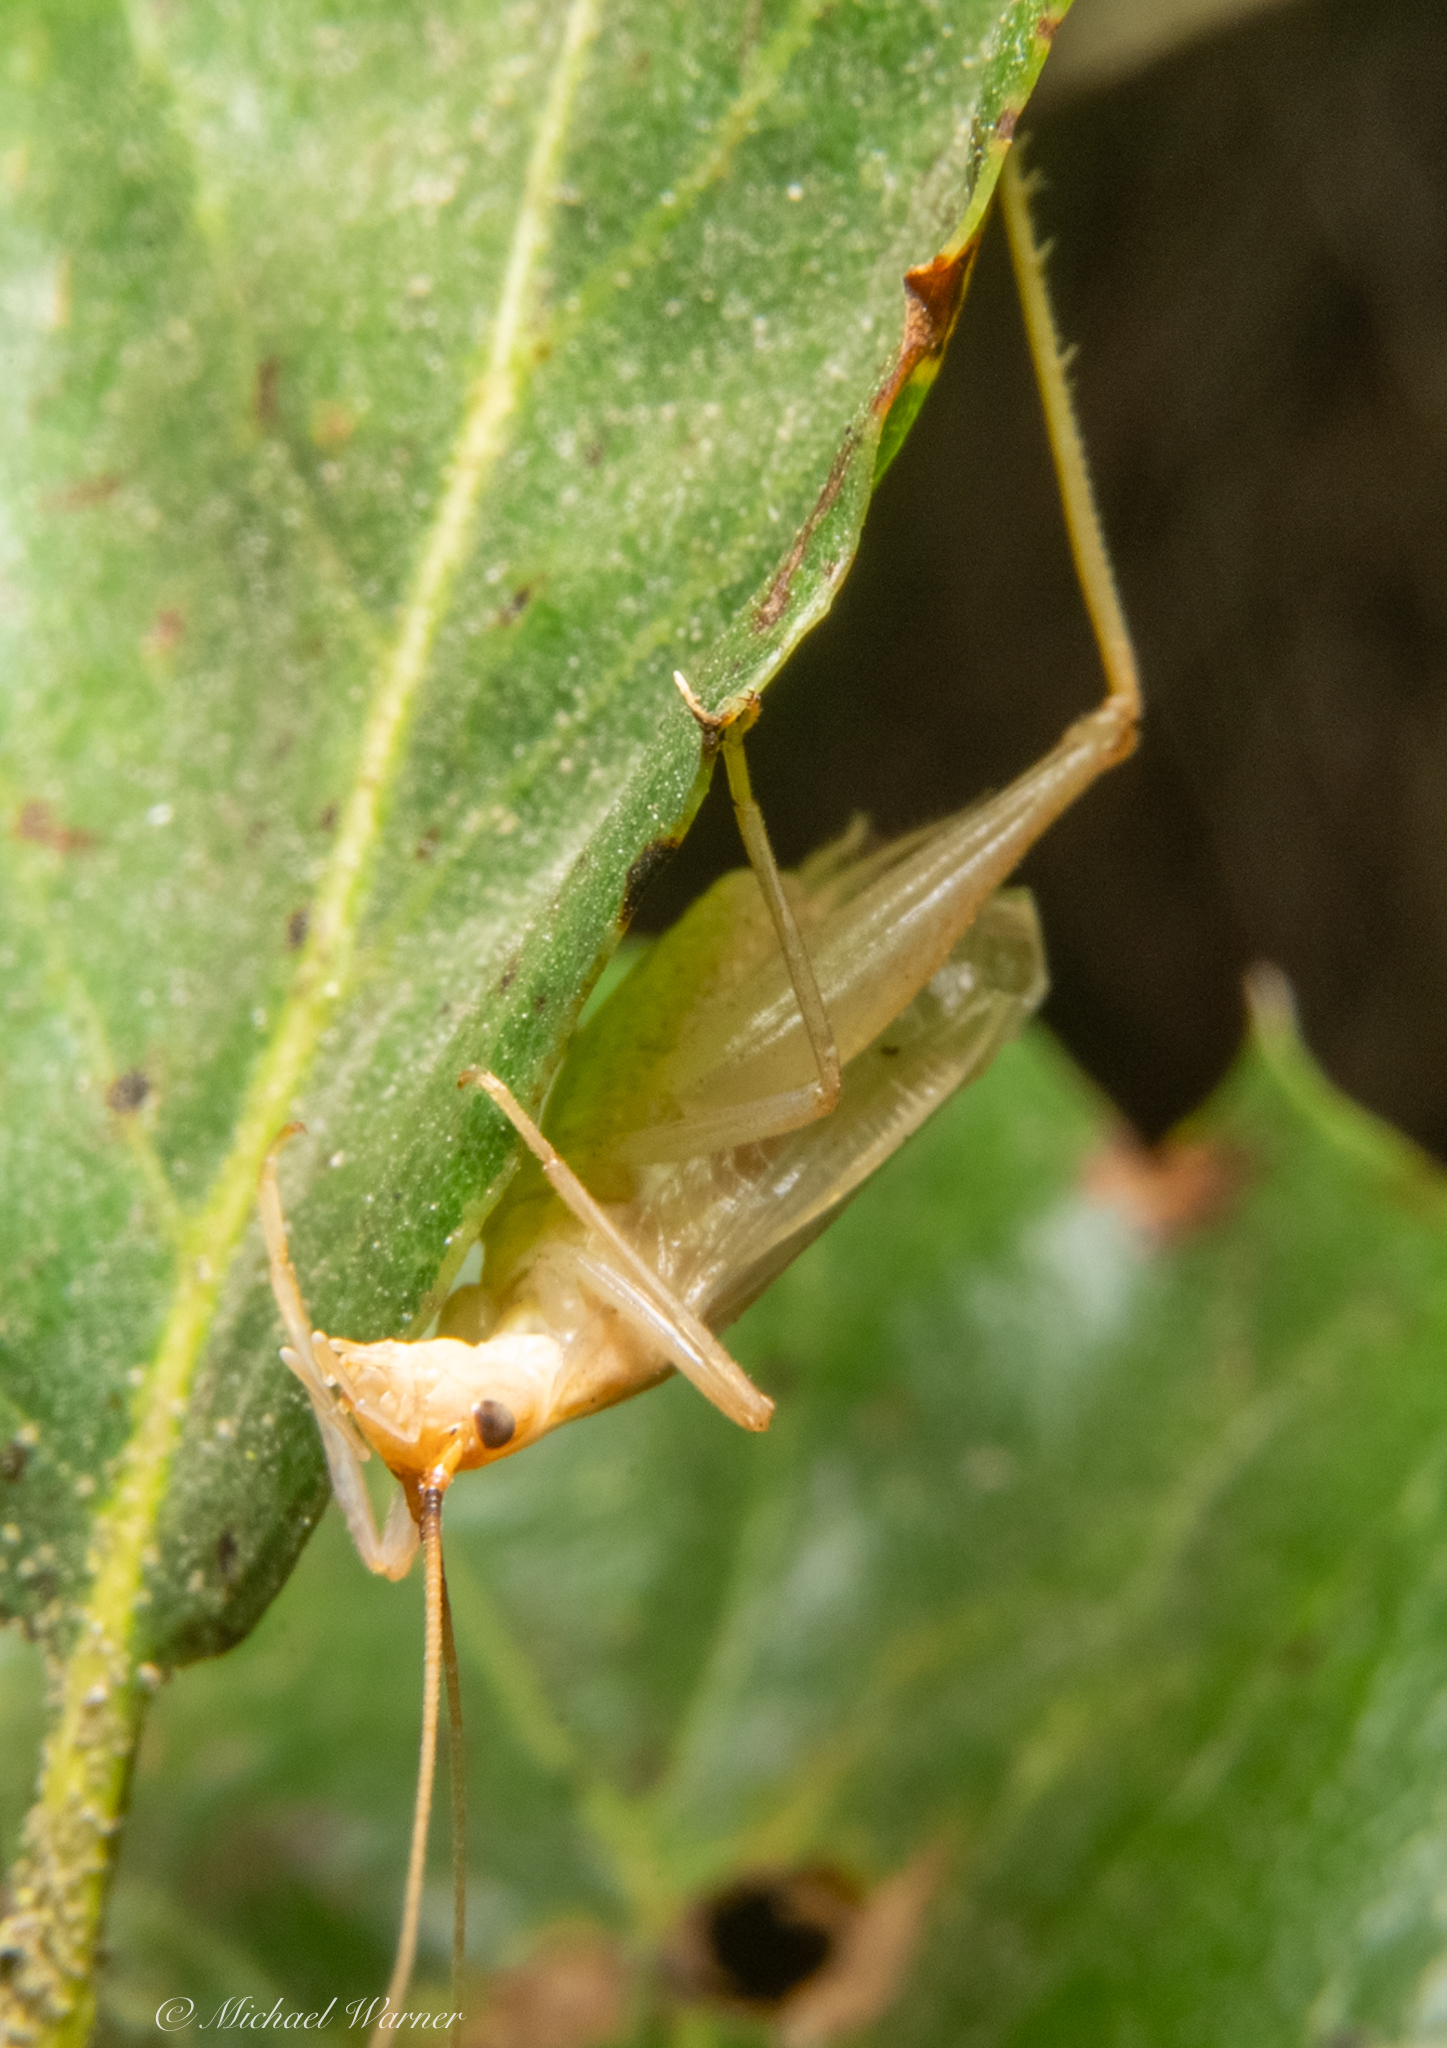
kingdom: Animalia
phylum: Arthropoda
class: Insecta
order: Orthoptera
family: Gryllidae
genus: Oecanthus
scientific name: Oecanthus californicus
